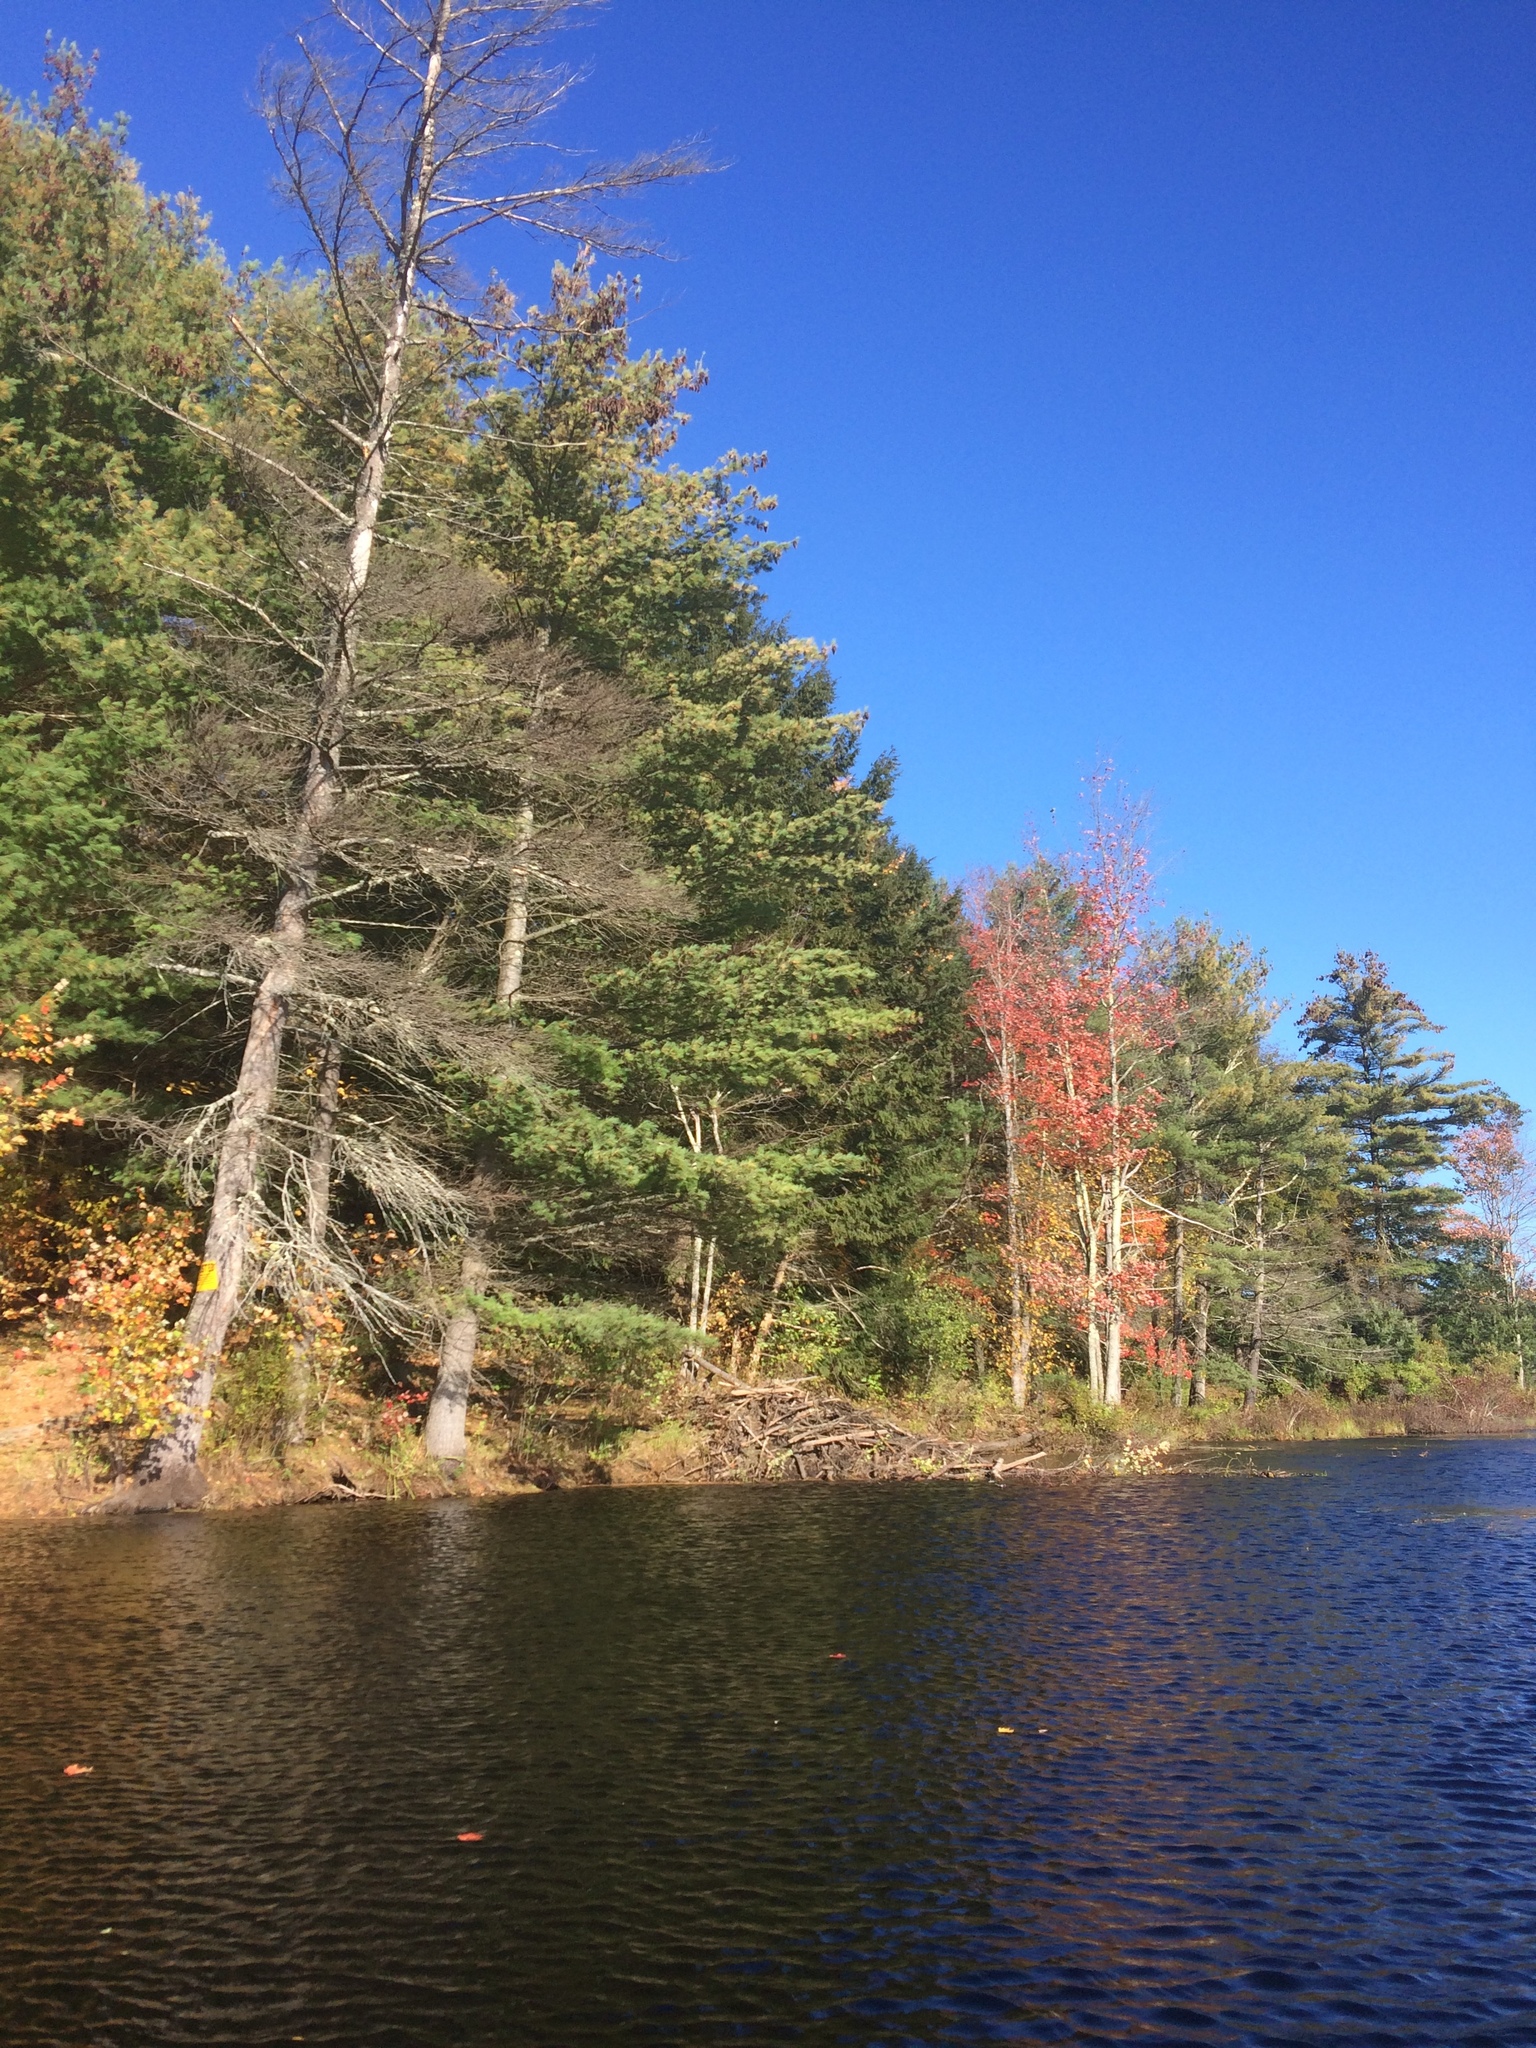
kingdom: Plantae
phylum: Tracheophyta
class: Pinopsida
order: Pinales
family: Pinaceae
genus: Pinus
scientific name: Pinus strobus
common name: Weymouth pine
